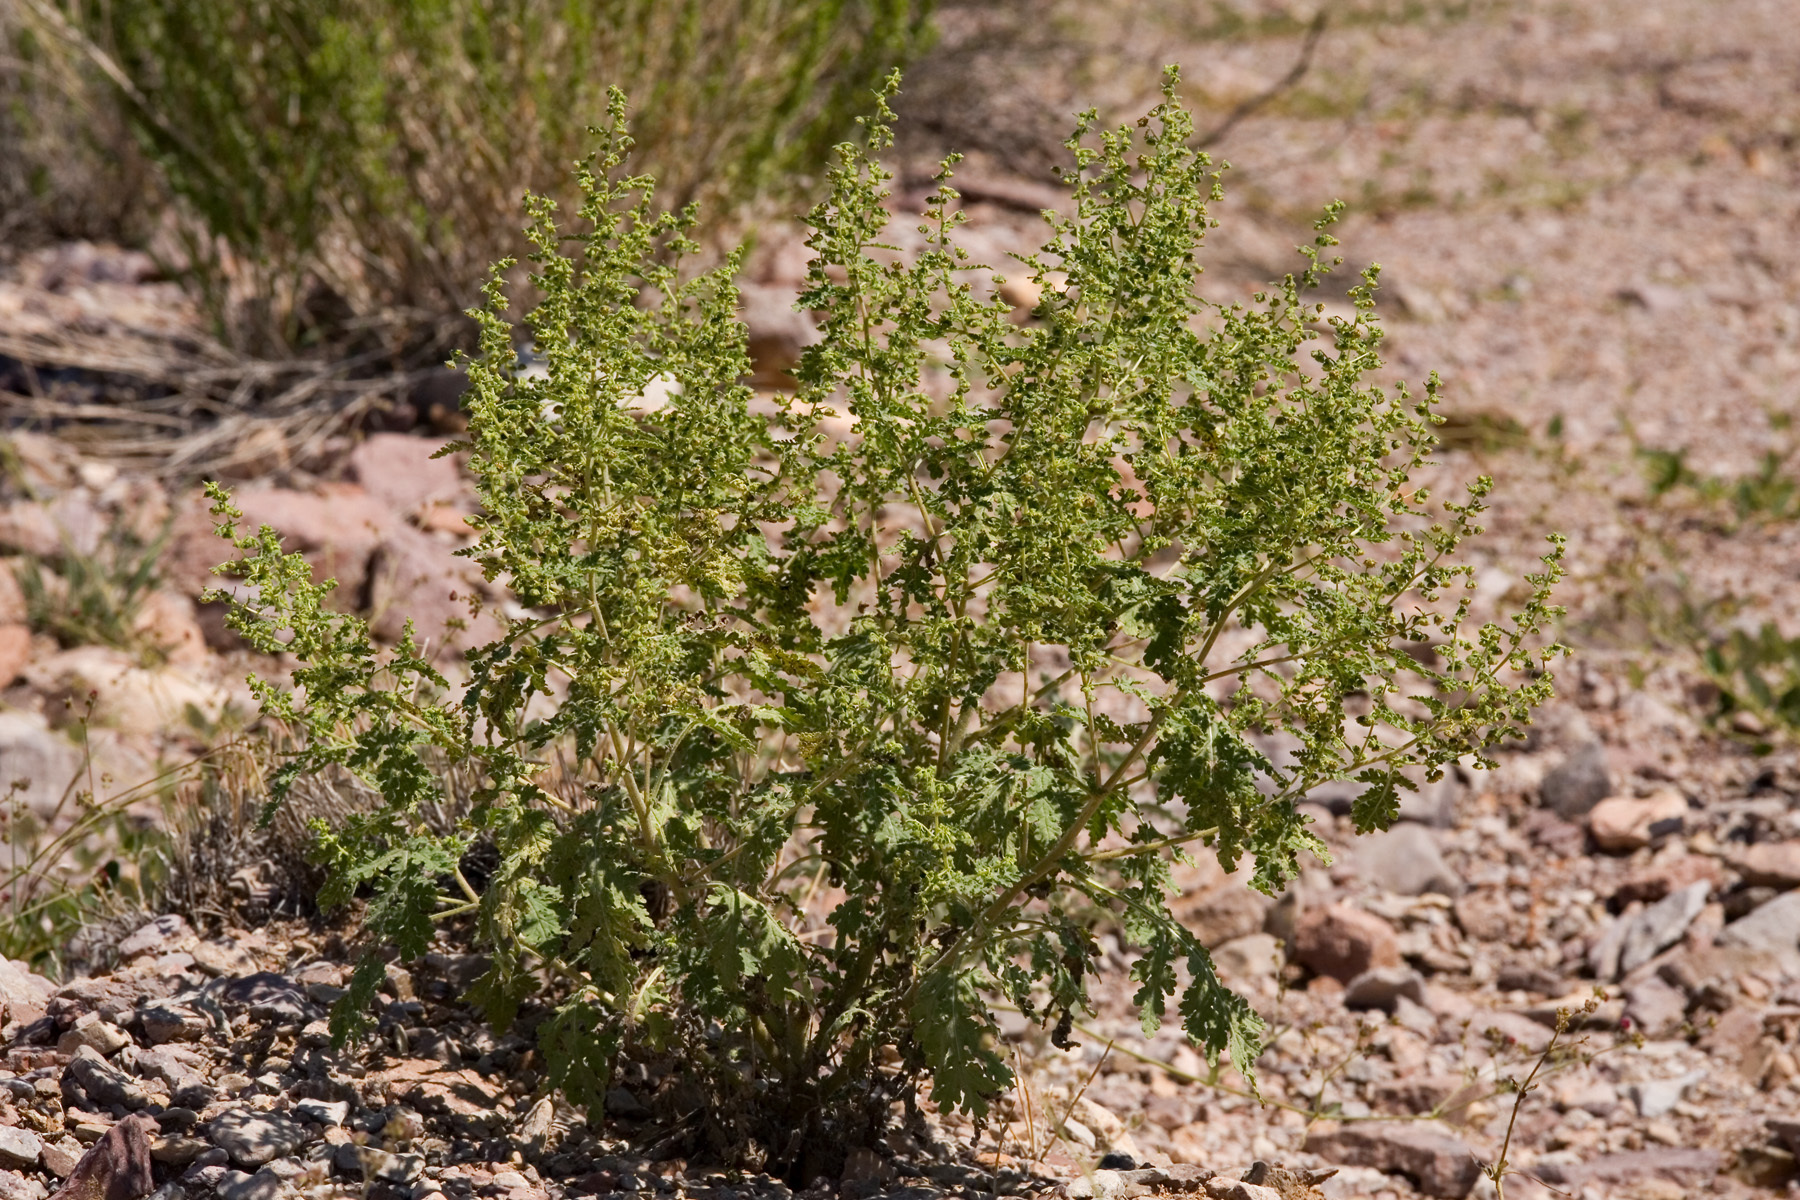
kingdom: Plantae
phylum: Tracheophyta
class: Magnoliopsida
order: Asterales
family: Asteraceae
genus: Hedosyne
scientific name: Hedosyne ambrosiifolia
